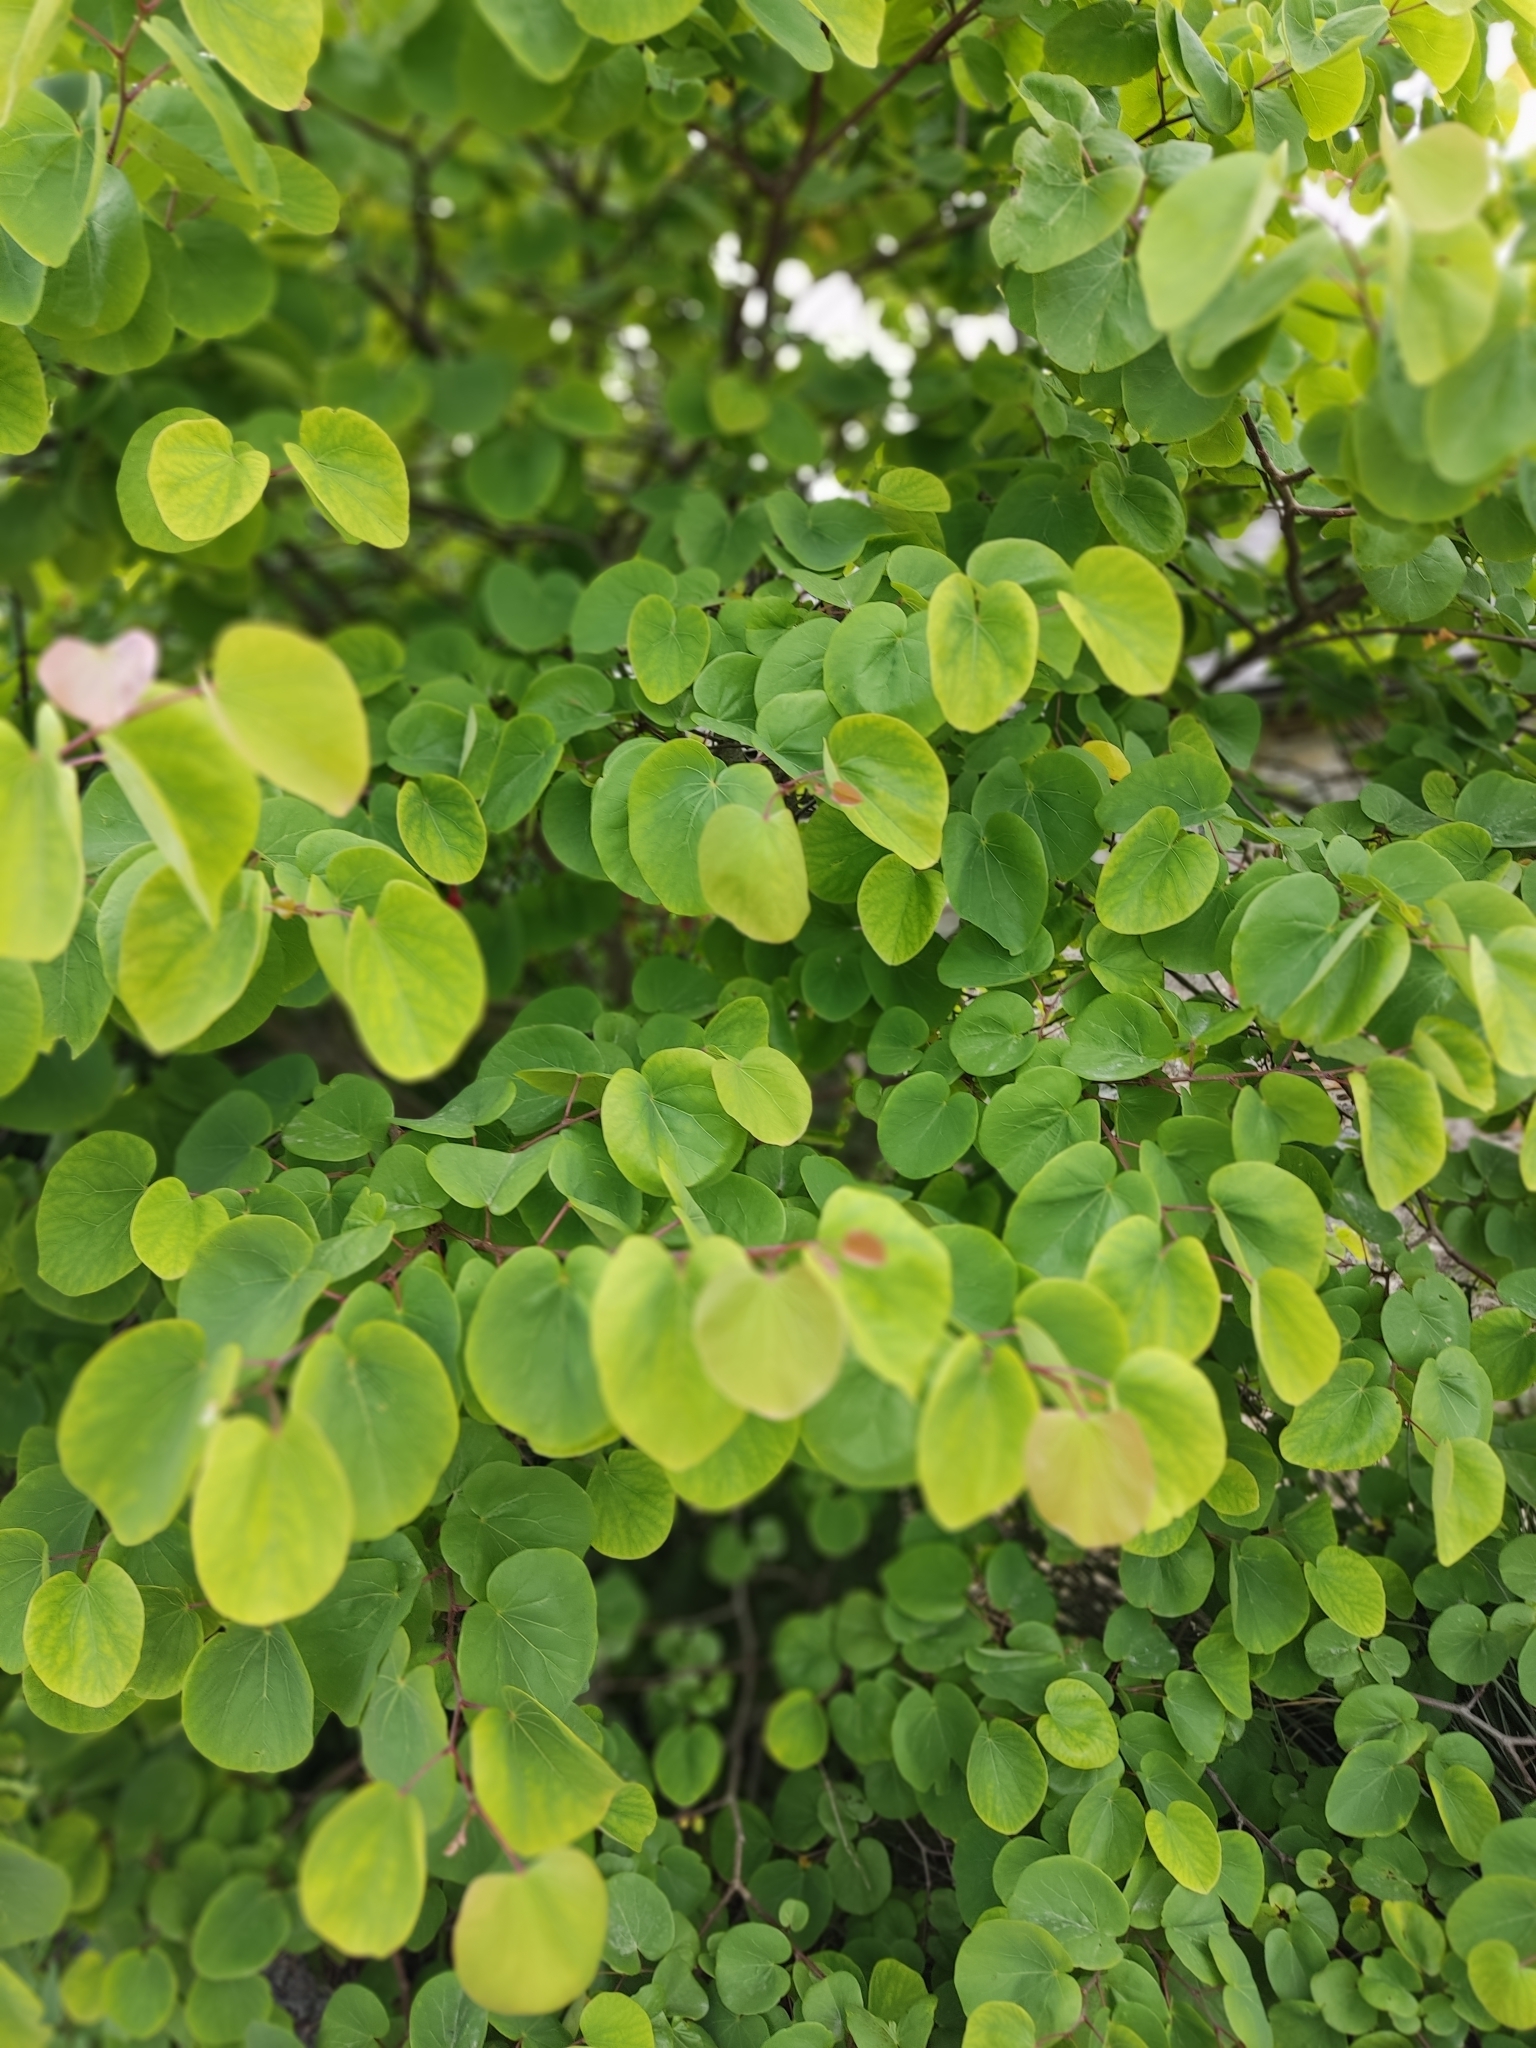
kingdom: Plantae
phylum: Tracheophyta
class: Magnoliopsida
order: Saxifragales
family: Cercidiphyllaceae
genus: Cercidiphyllum
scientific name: Cercidiphyllum japonicum
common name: Katsura tree
